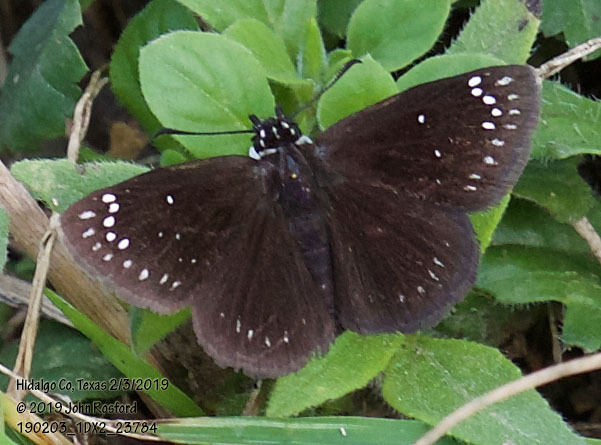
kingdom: Animalia
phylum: Arthropoda
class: Insecta
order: Lepidoptera
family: Hesperiidae
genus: Pholisora
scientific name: Pholisora catullus
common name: Common sootywing
